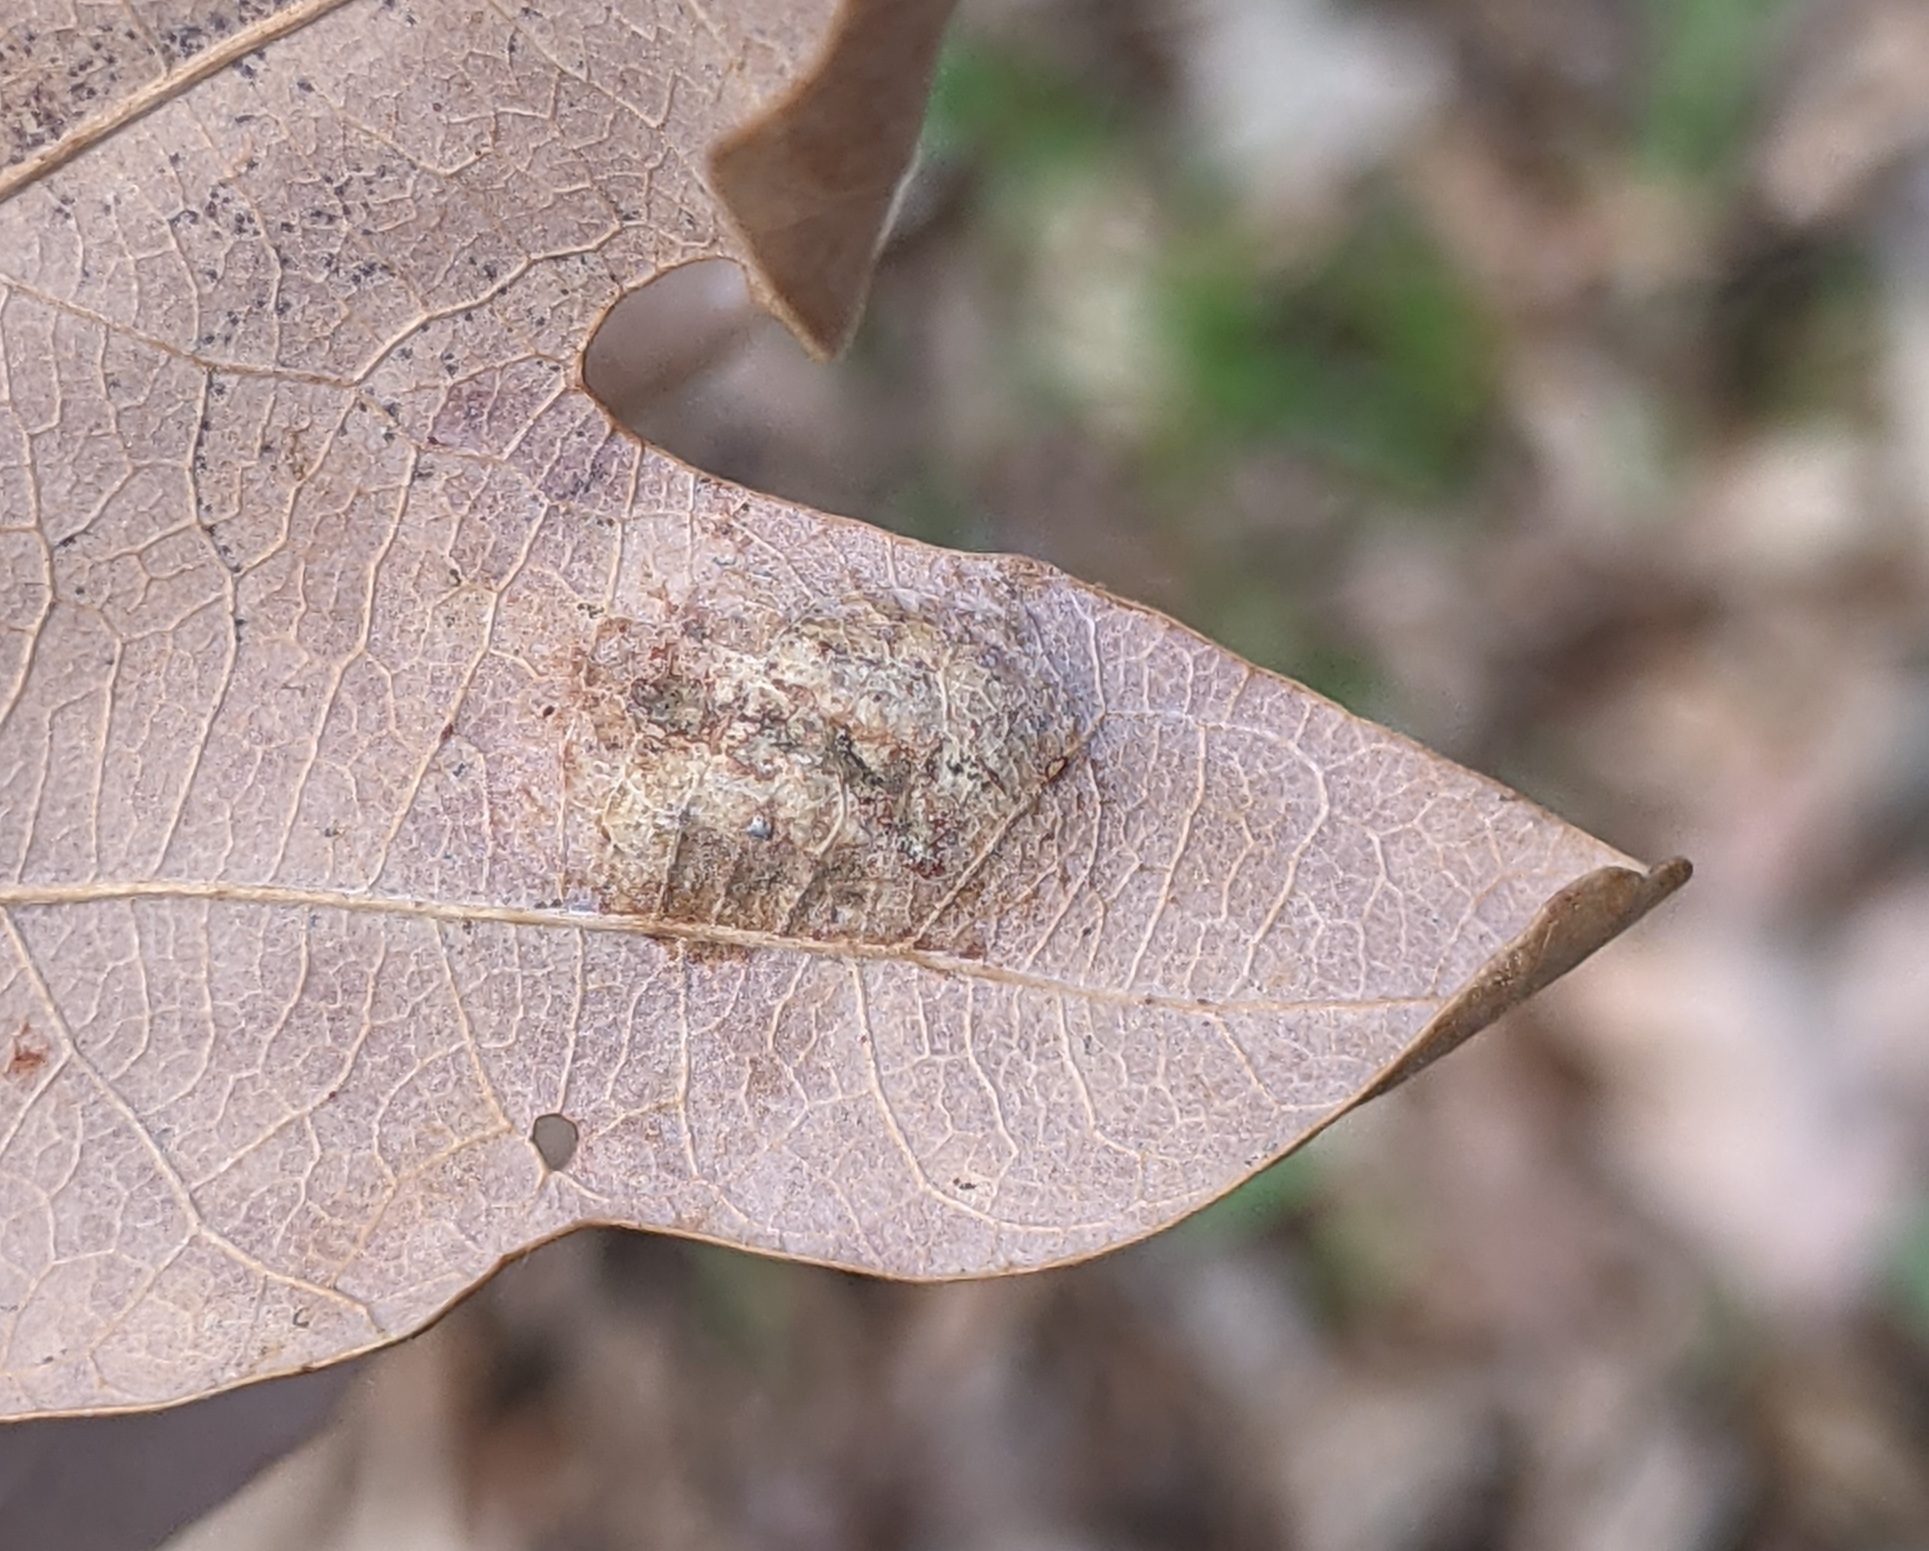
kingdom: Fungi
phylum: Ascomycota
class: Taphrinomycetes
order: Taphrinales
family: Taphrinaceae
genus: Taphrina
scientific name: Taphrina caerulescens
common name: Oak leaf blister
